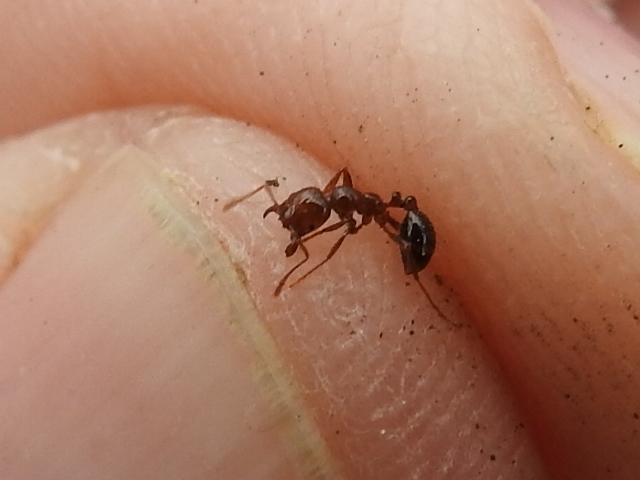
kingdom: Animalia
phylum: Arthropoda
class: Insecta
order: Hymenoptera
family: Formicidae
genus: Solenopsis
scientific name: Solenopsis invicta
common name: Red imported fire ant
